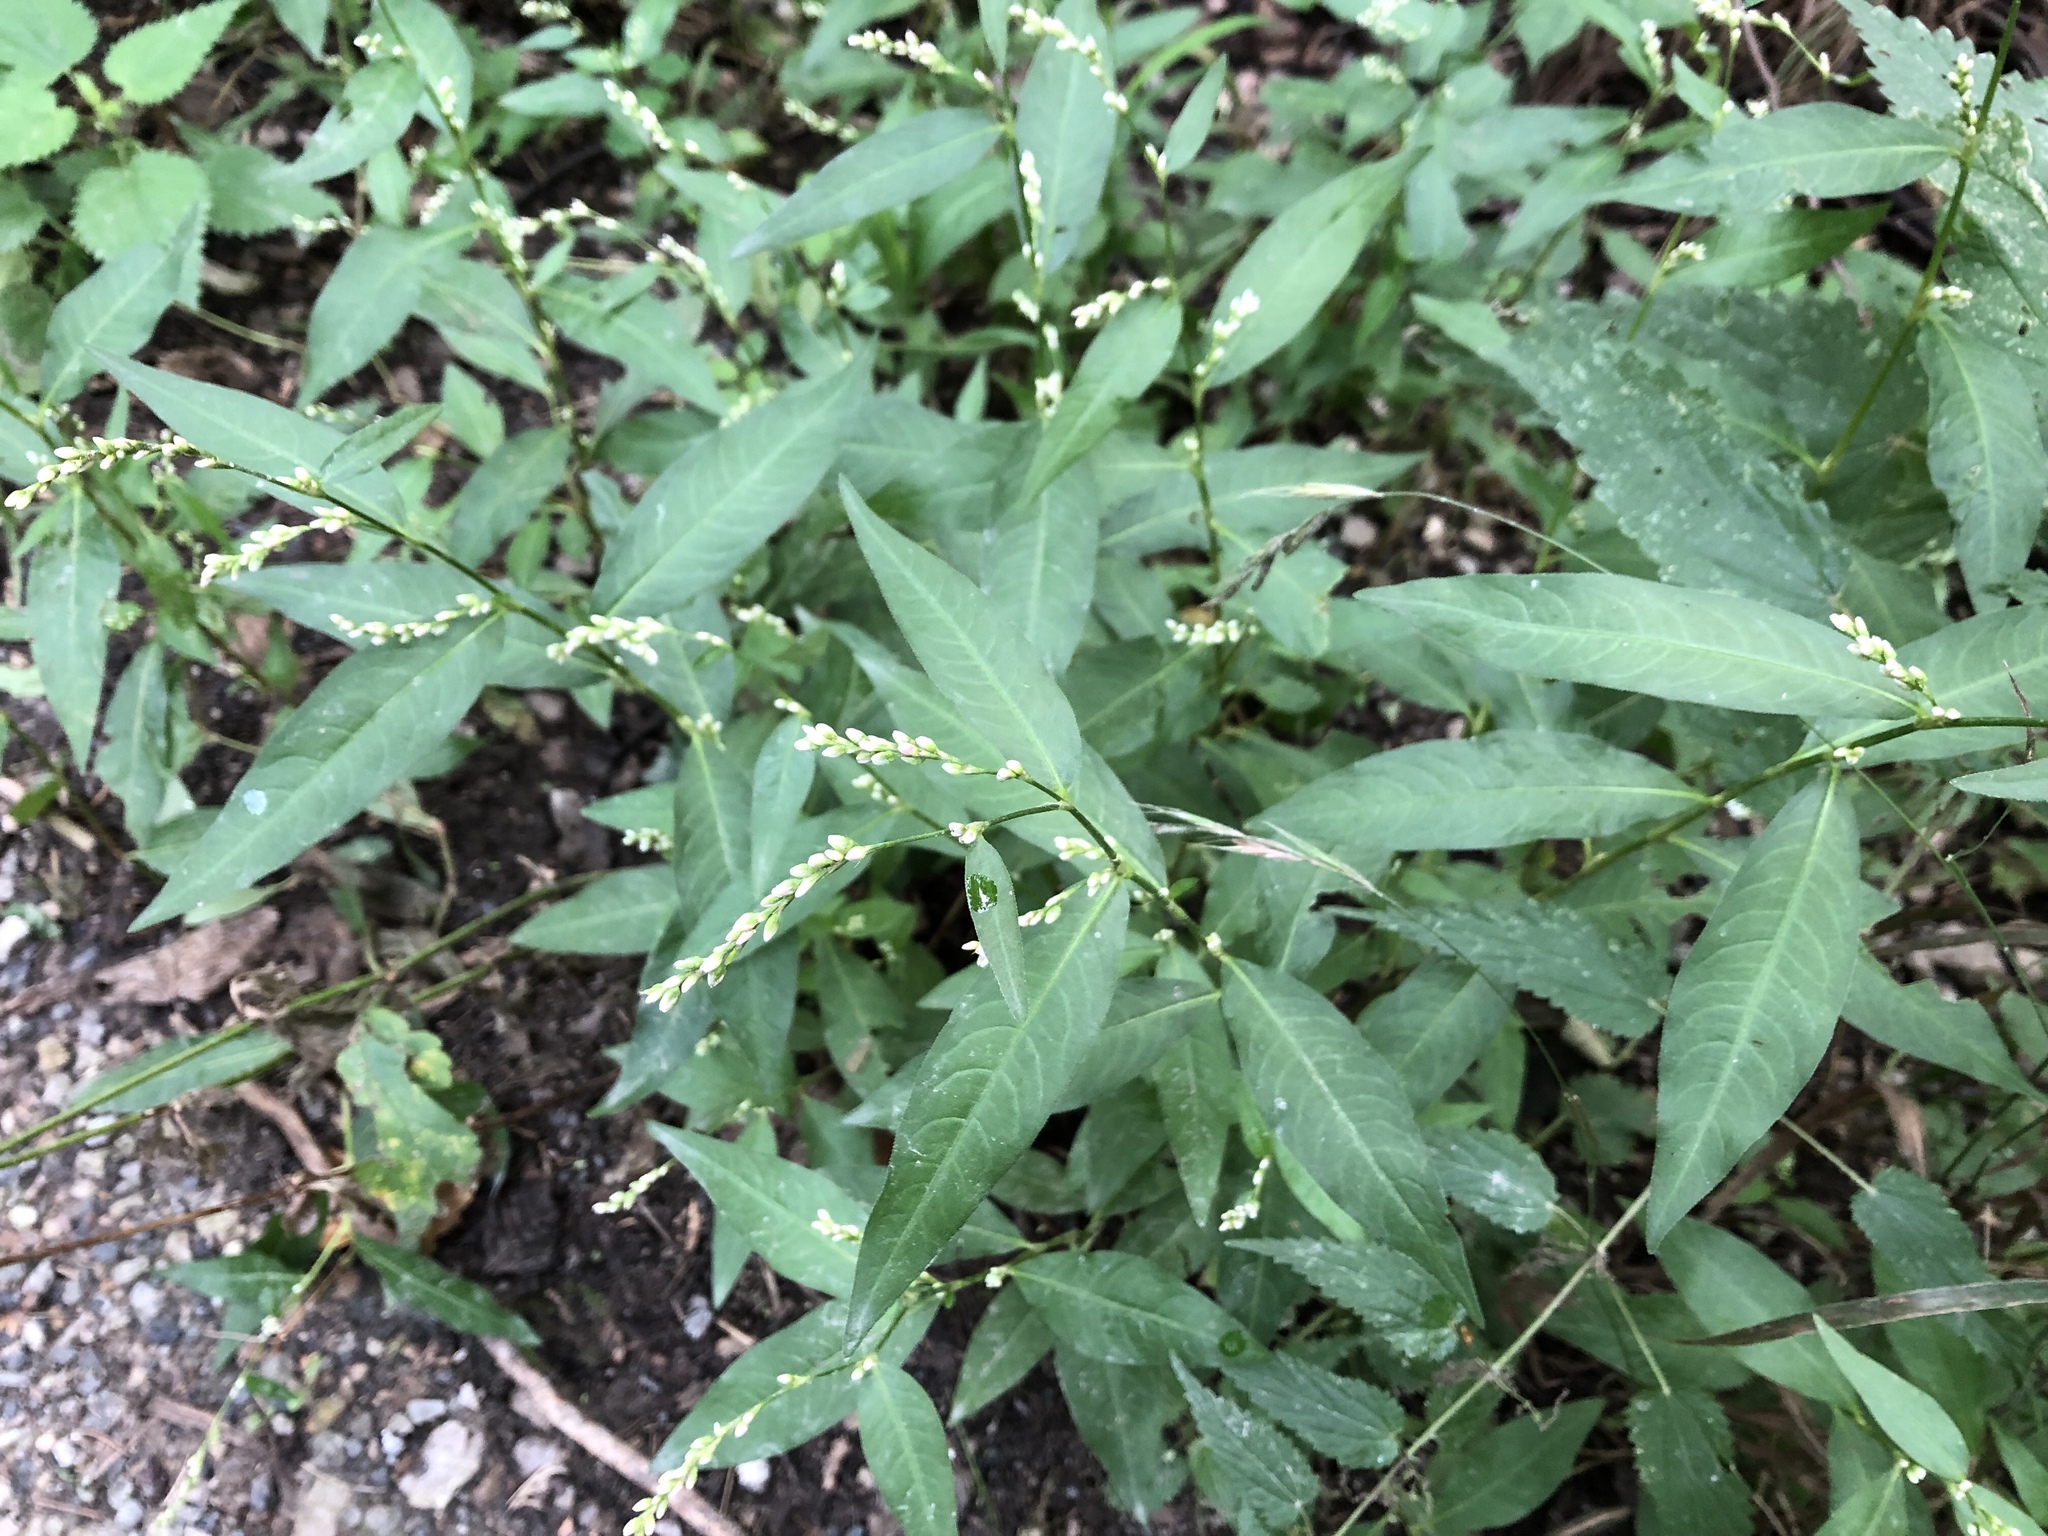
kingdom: Plantae
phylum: Tracheophyta
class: Magnoliopsida
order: Caryophyllales
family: Polygonaceae
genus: Persicaria
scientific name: Persicaria hydropiper
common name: Water-pepper
